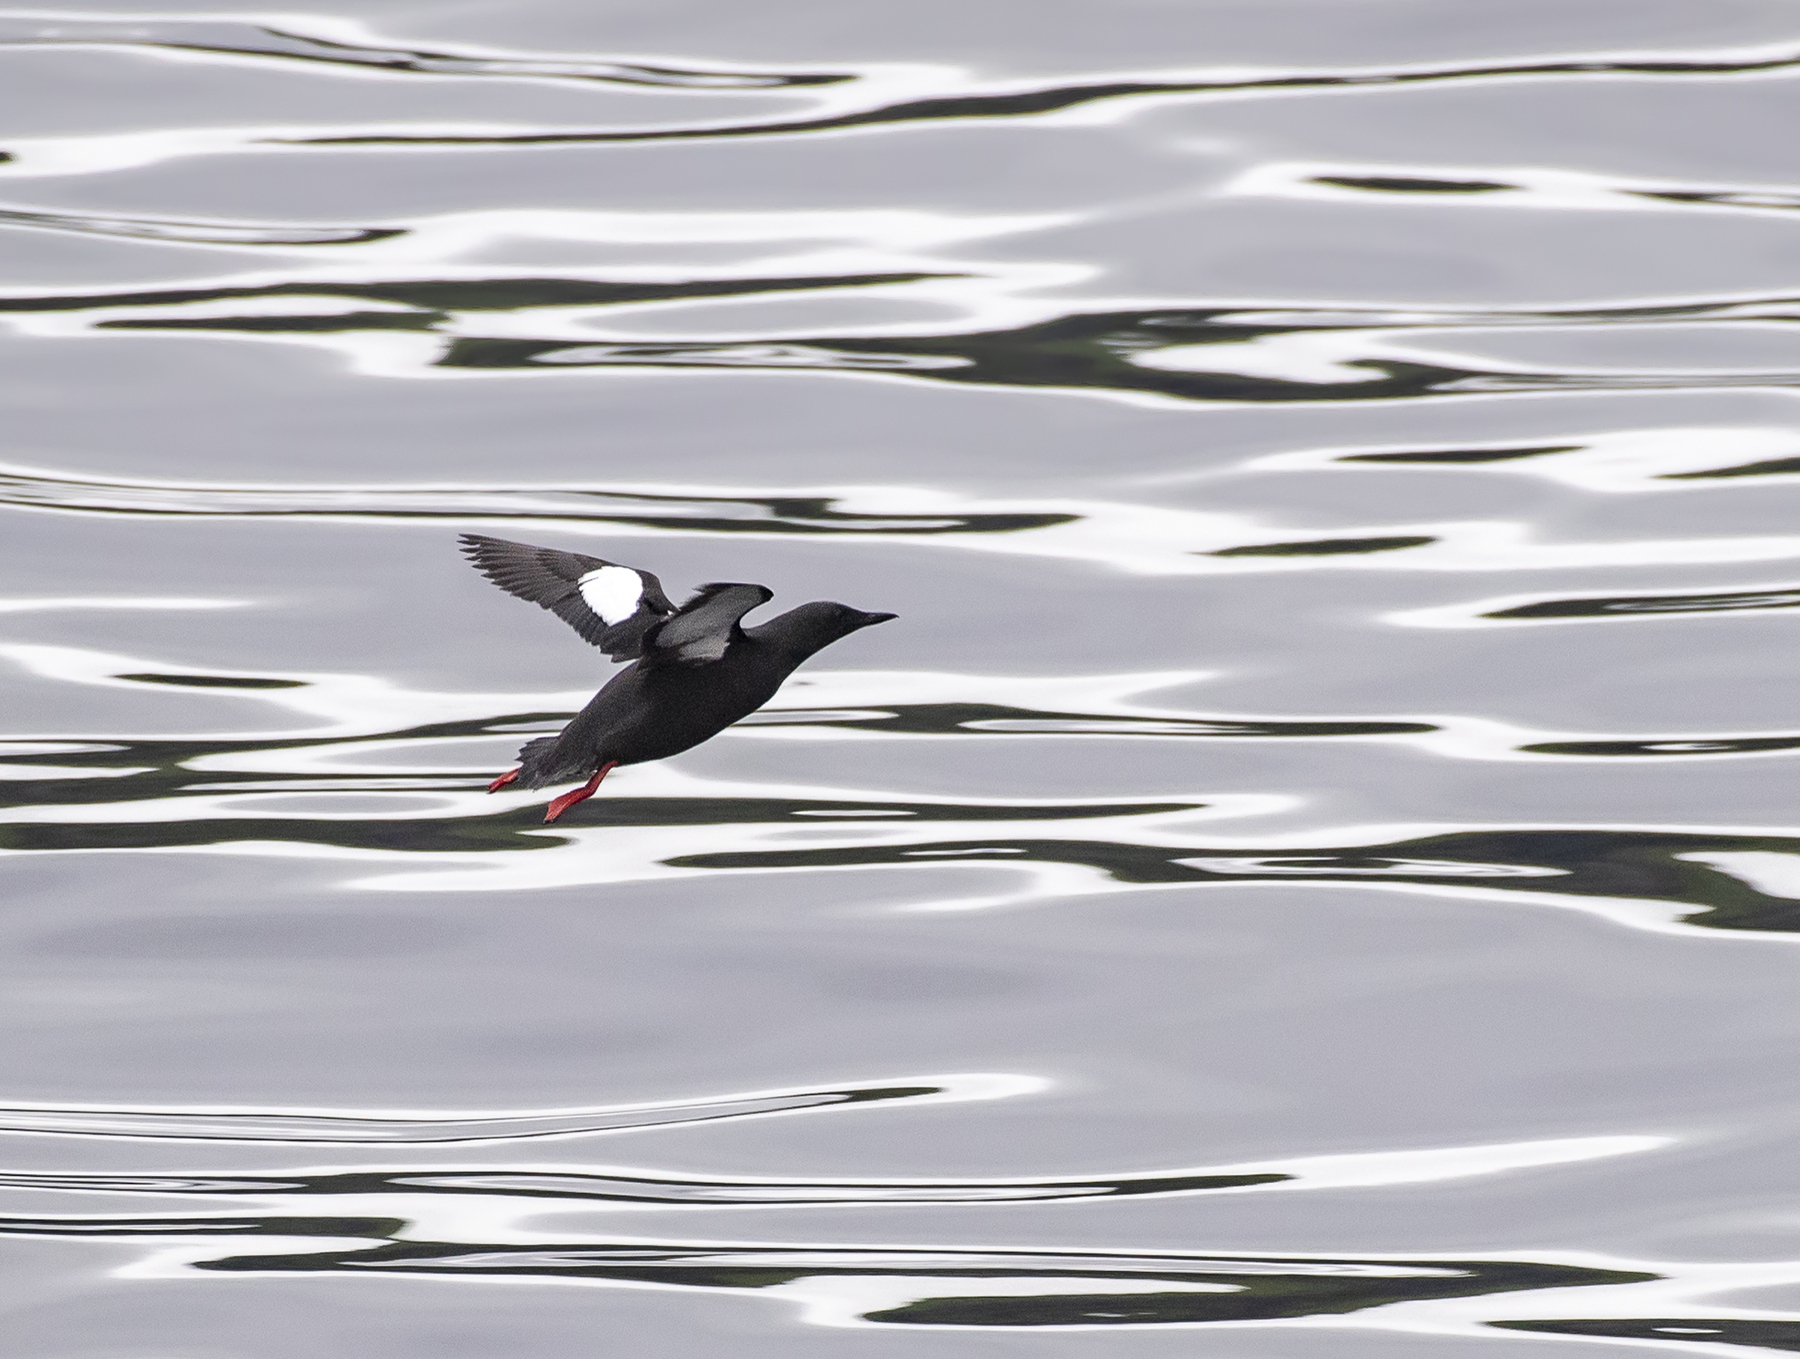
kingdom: Animalia
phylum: Chordata
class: Aves
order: Charadriiformes
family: Alcidae
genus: Cepphus
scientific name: Cepphus grylle
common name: Black guillemot
